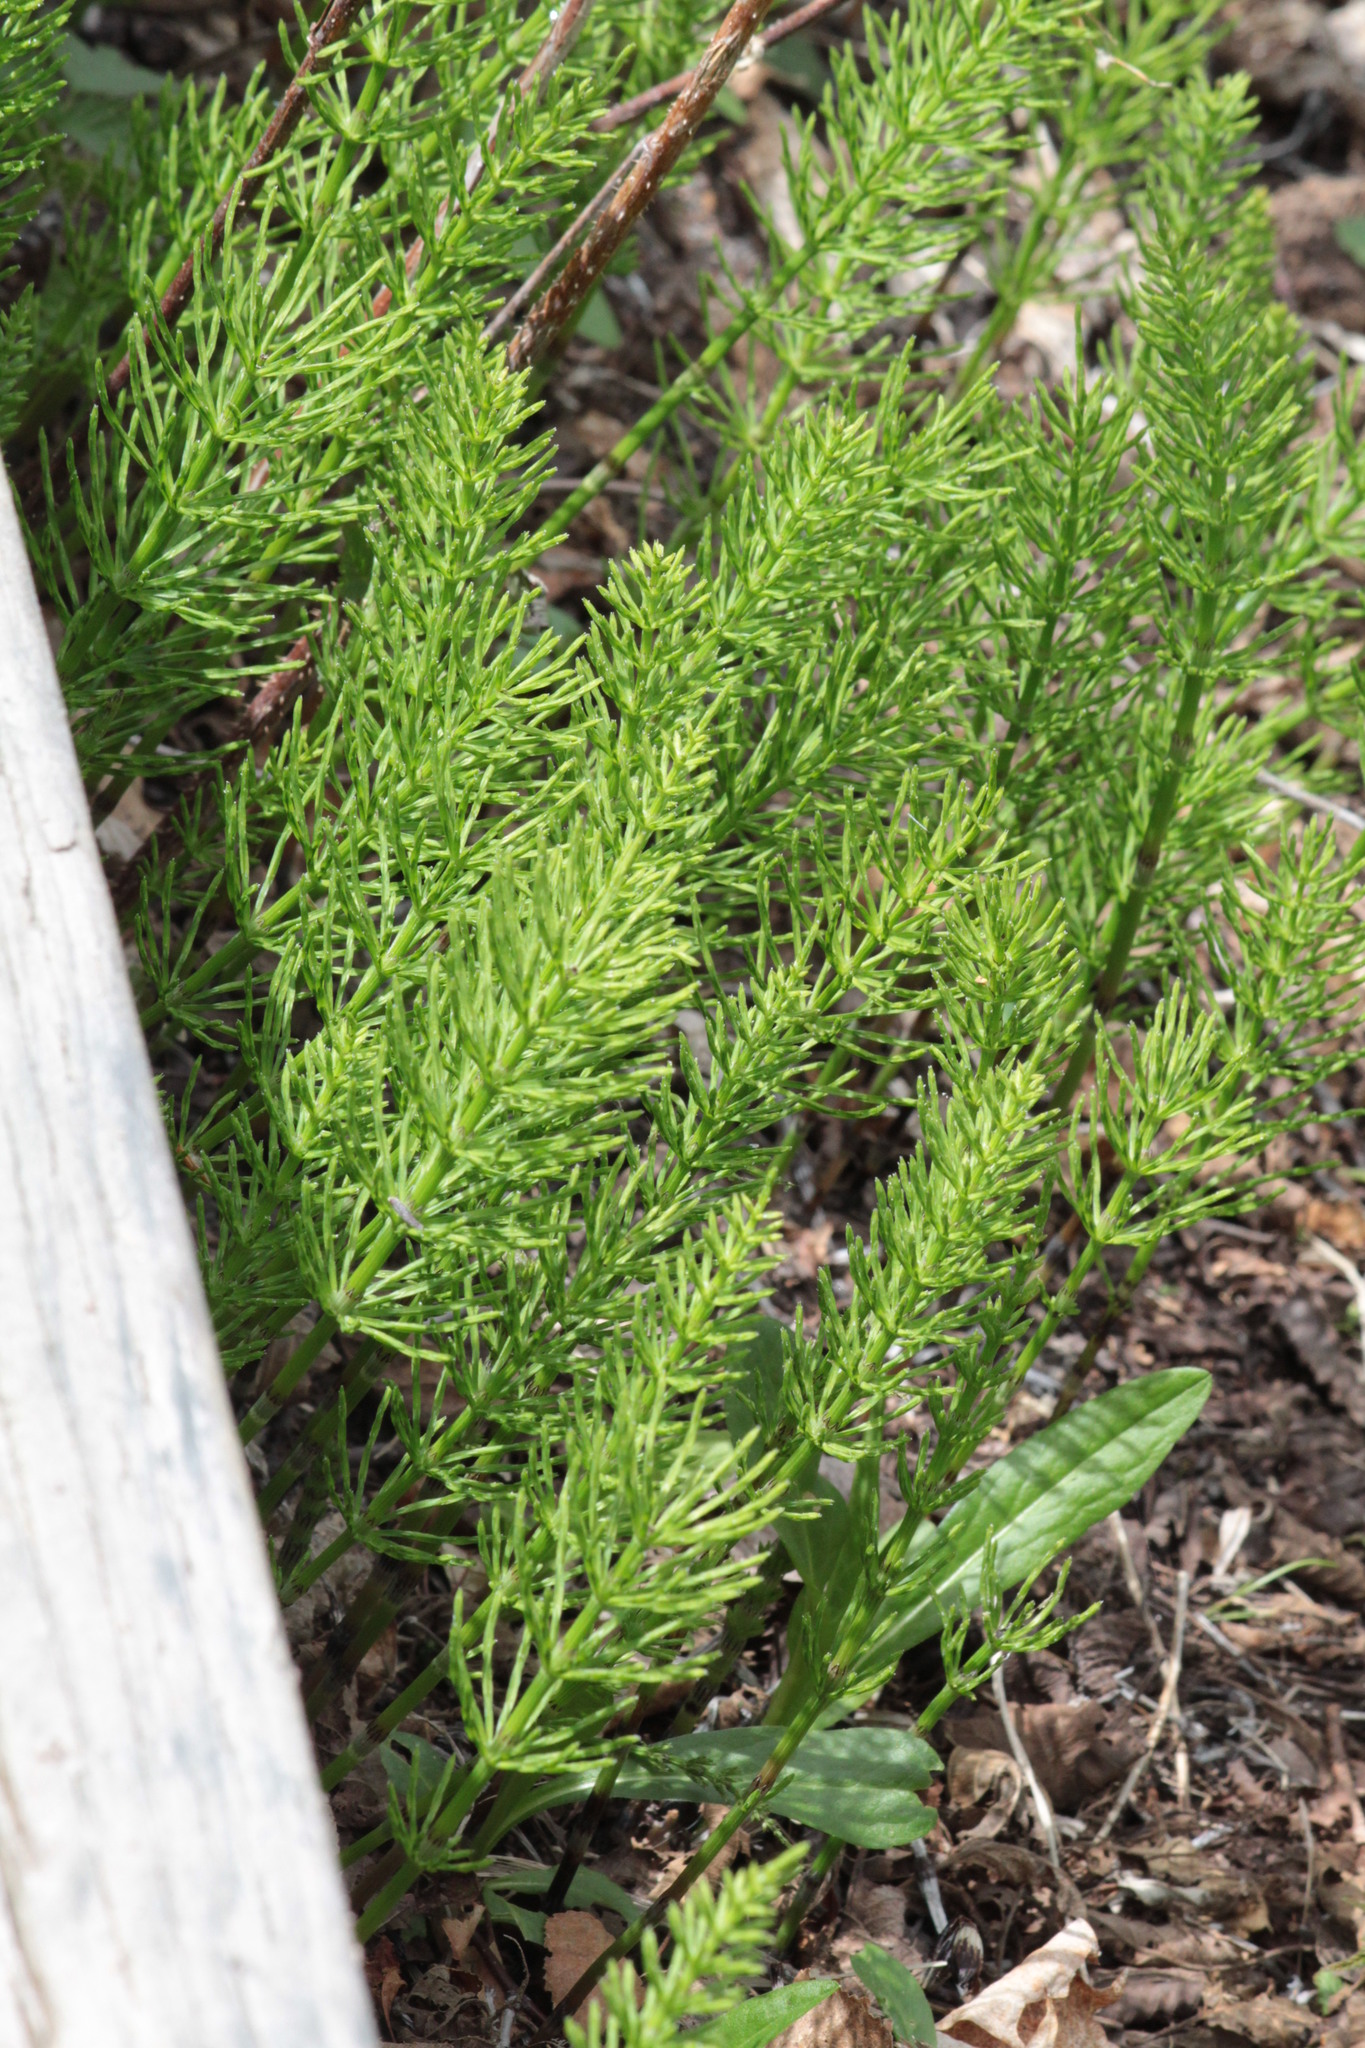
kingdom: Plantae
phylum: Tracheophyta
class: Polypodiopsida
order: Equisetales
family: Equisetaceae
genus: Equisetum
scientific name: Equisetum arvense
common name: Field horsetail
